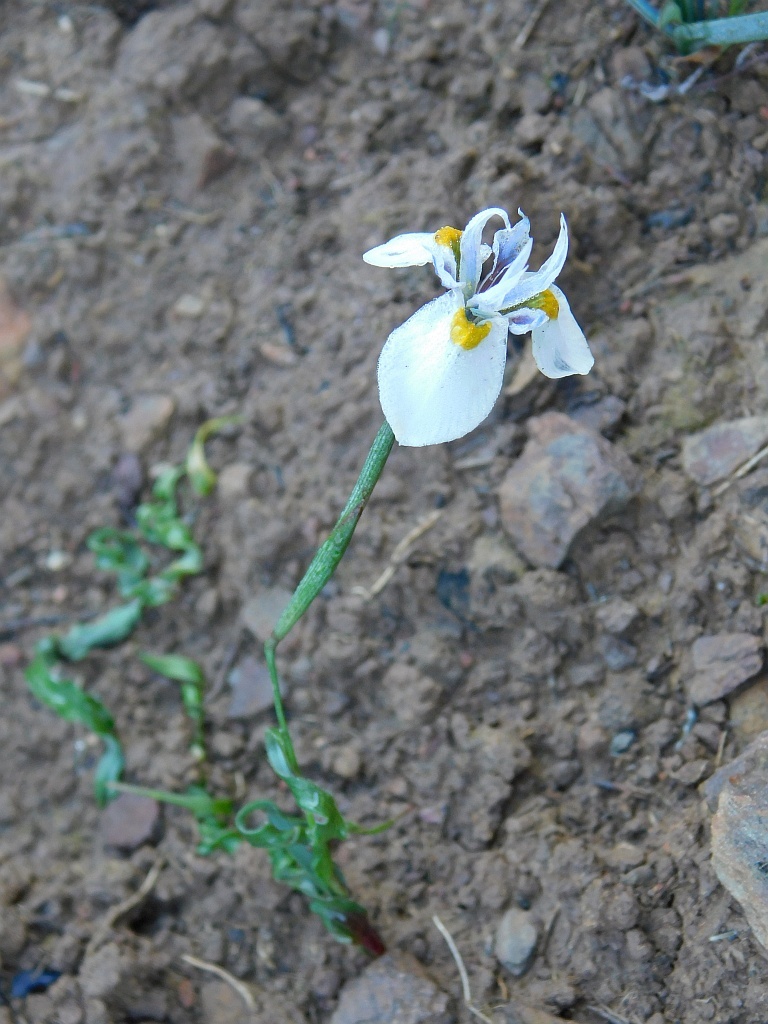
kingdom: Plantae
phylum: Tracheophyta
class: Liliopsida
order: Asparagales
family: Iridaceae
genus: Moraea
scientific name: Moraea fergusoniae
